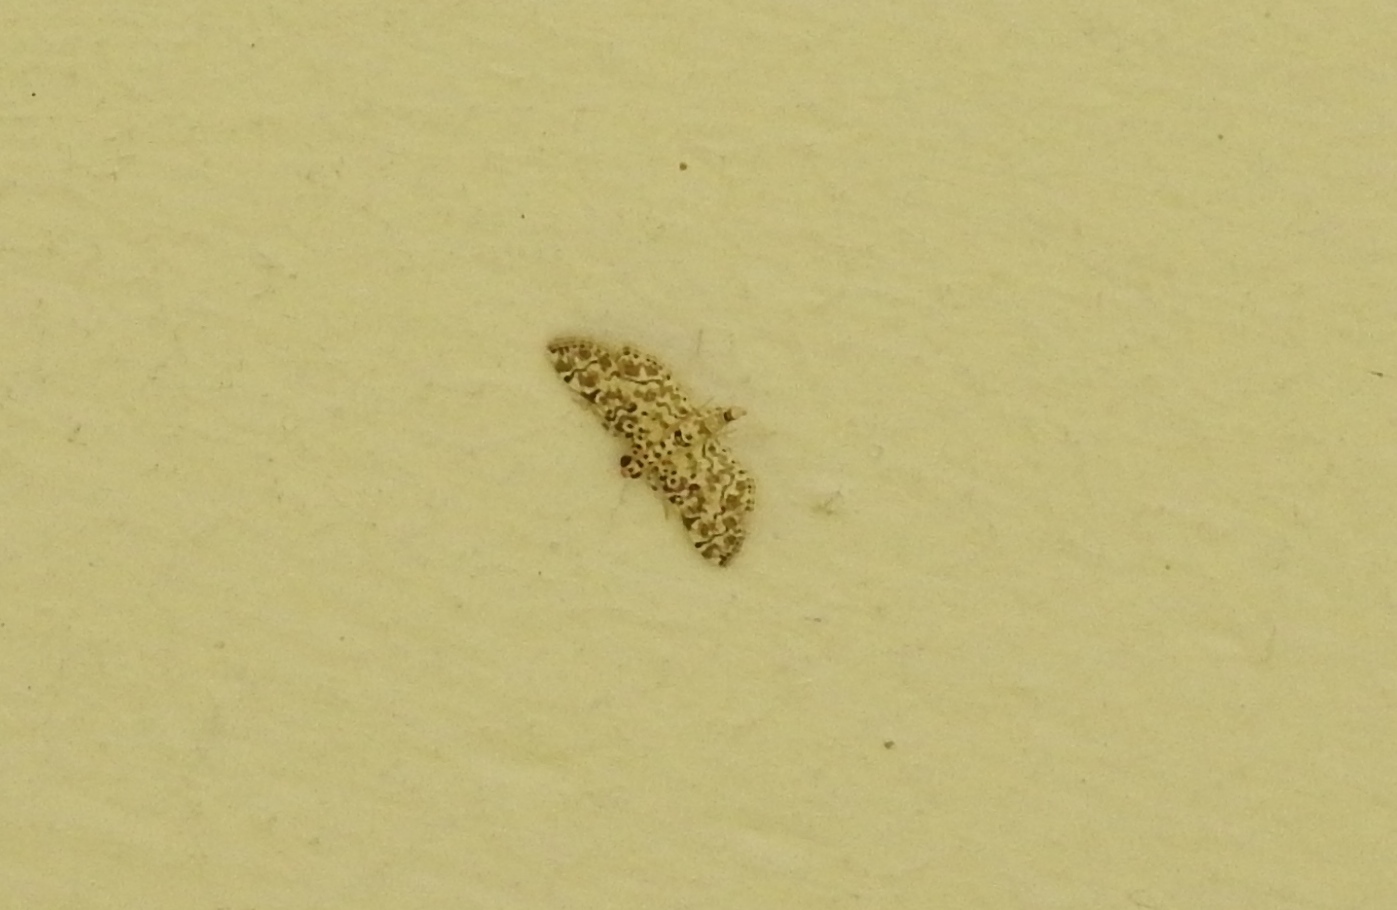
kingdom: Animalia
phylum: Arthropoda
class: Insecta
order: Lepidoptera
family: Crambidae
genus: Metoeca
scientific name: Metoeca foedalis
